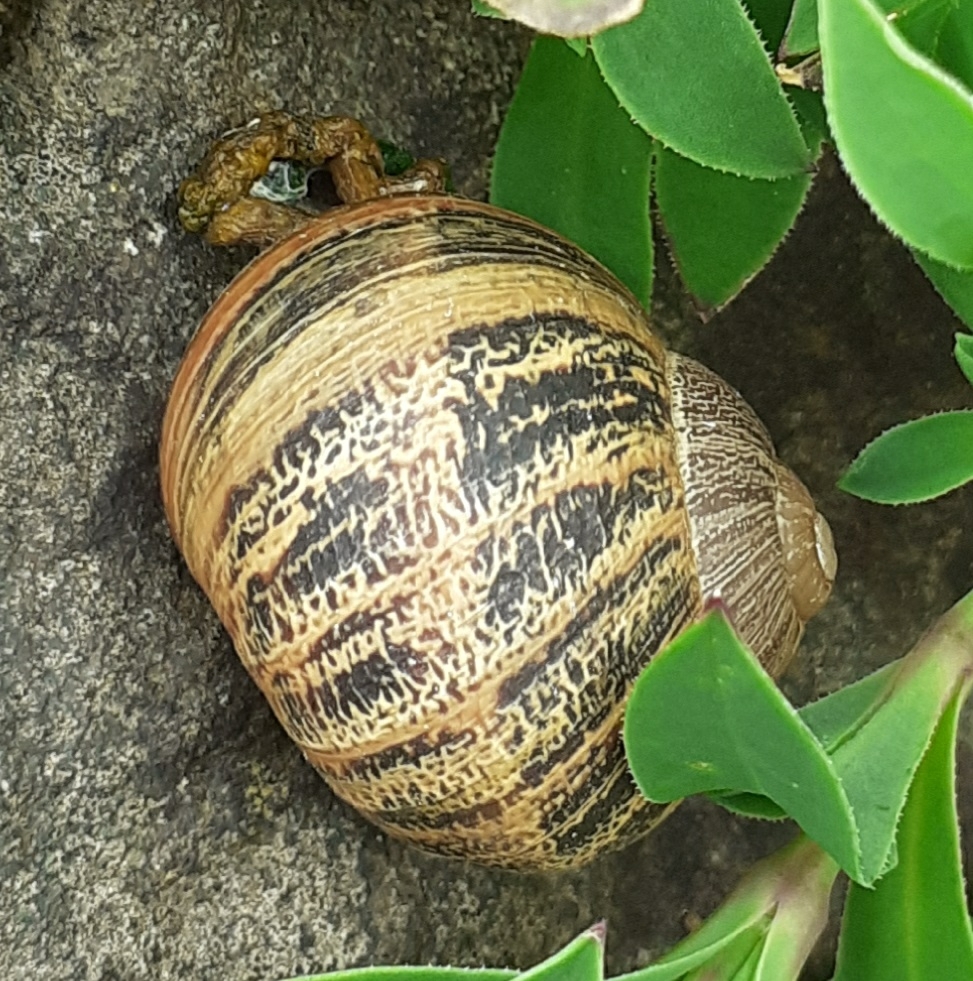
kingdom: Animalia
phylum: Mollusca
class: Gastropoda
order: Stylommatophora
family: Helicidae
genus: Cornu
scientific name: Cornu aspersum
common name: Brown garden snail
